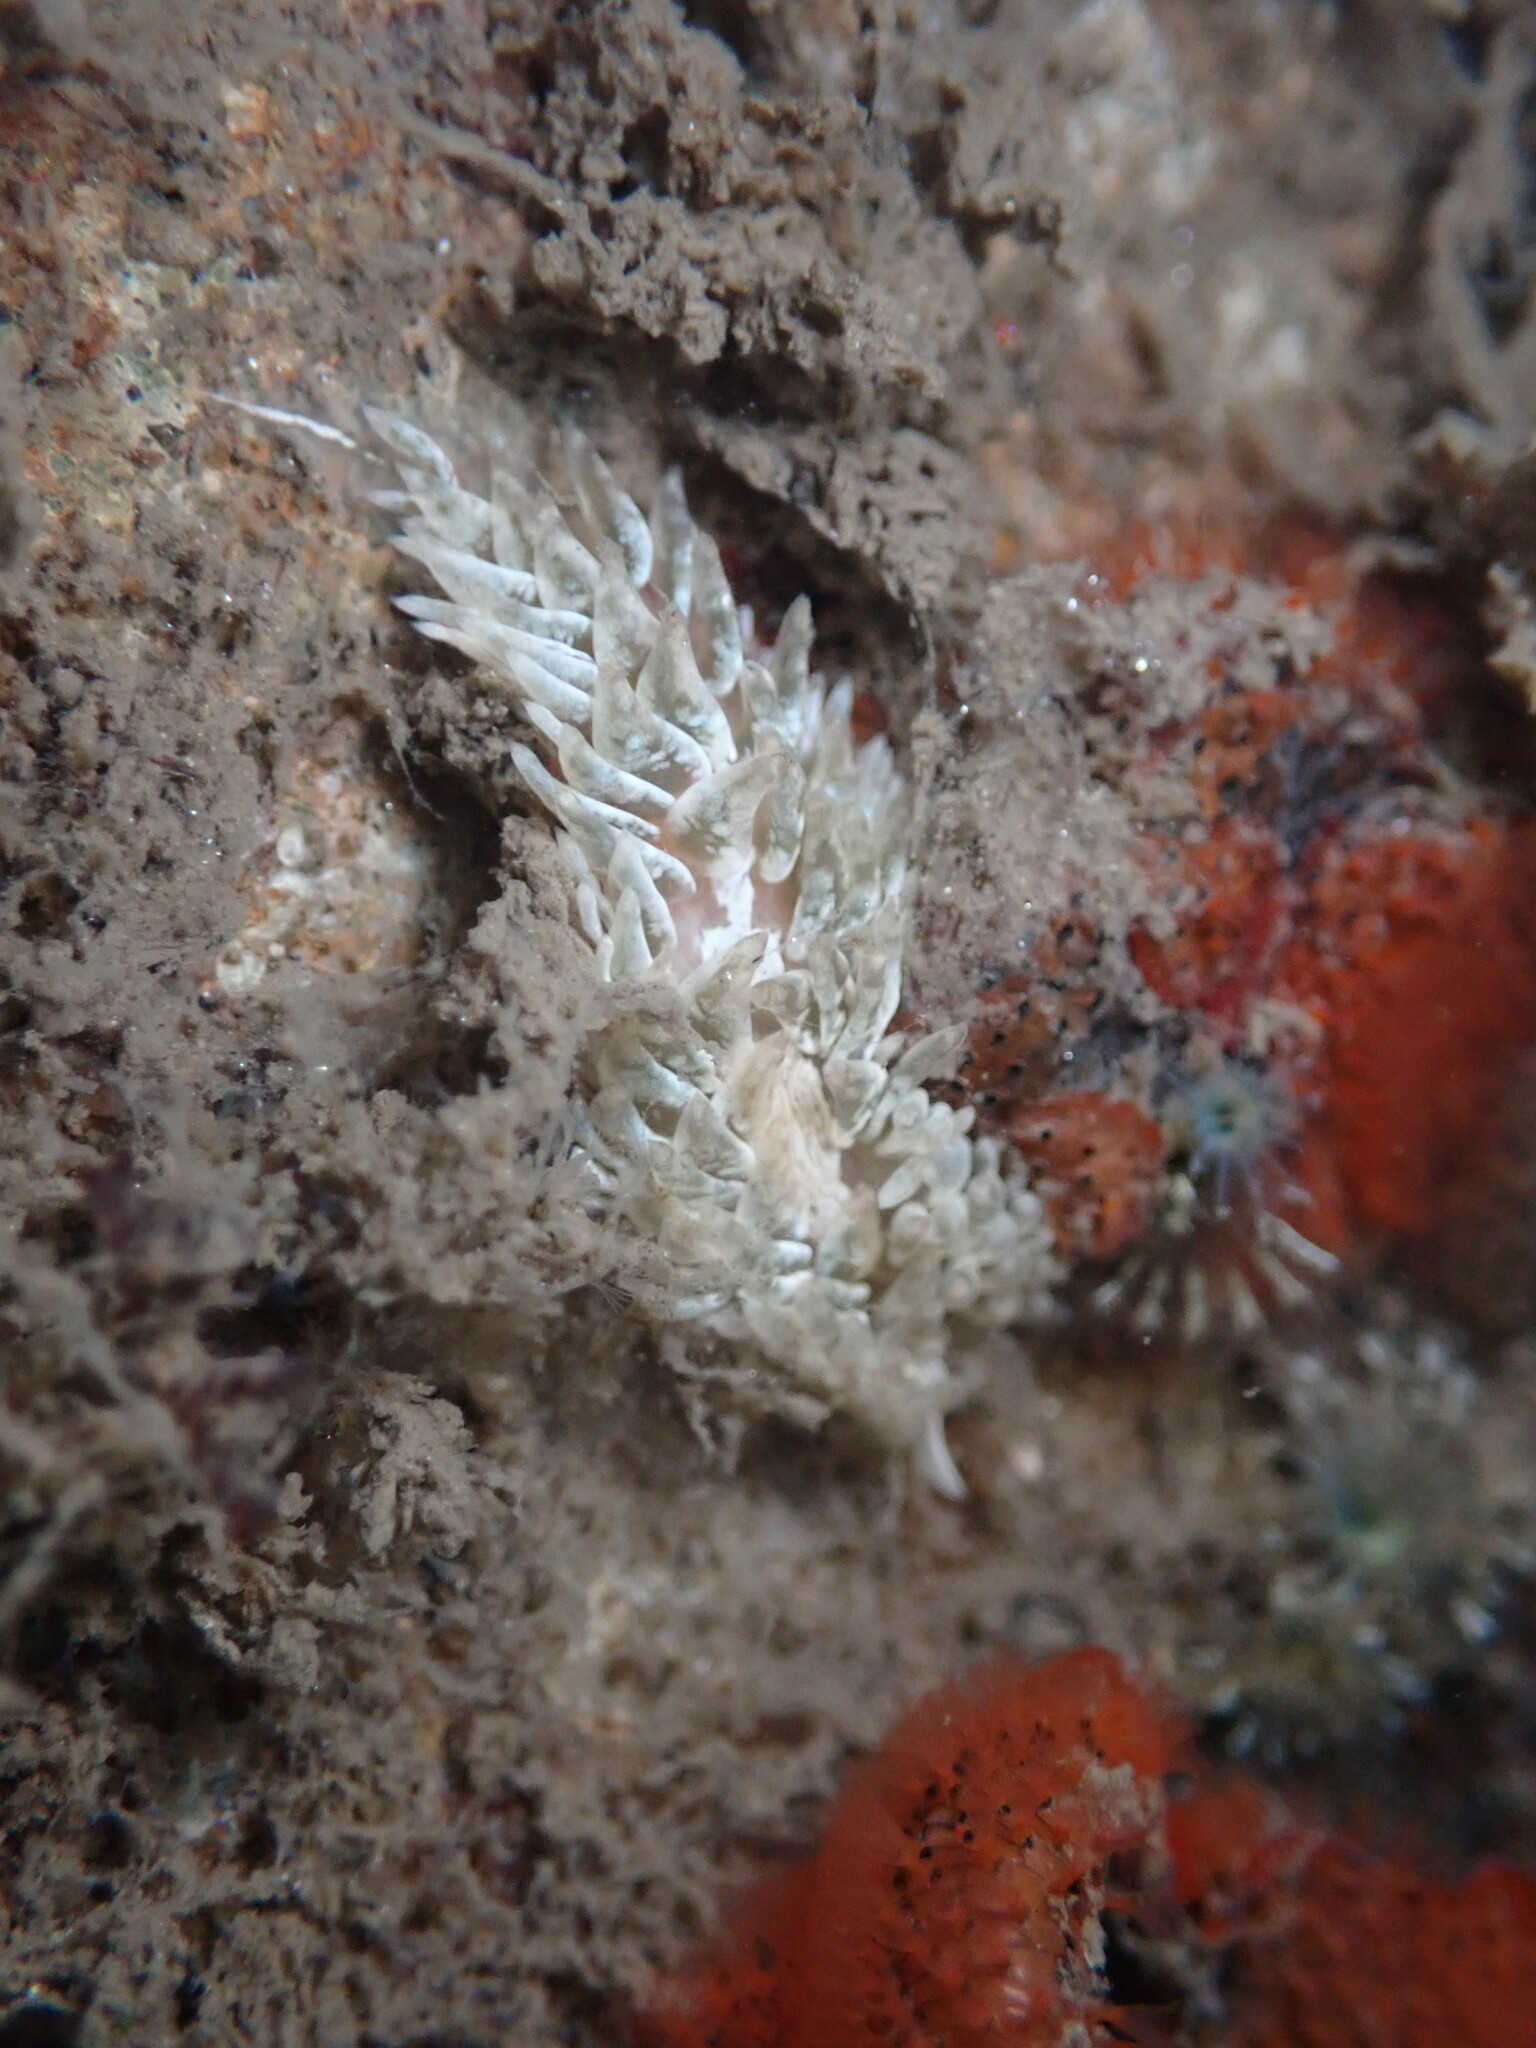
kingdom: Animalia
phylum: Mollusca
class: Gastropoda
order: Nudibranchia
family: Aeolidiidae
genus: Aeolidia
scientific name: Aeolidia loui
